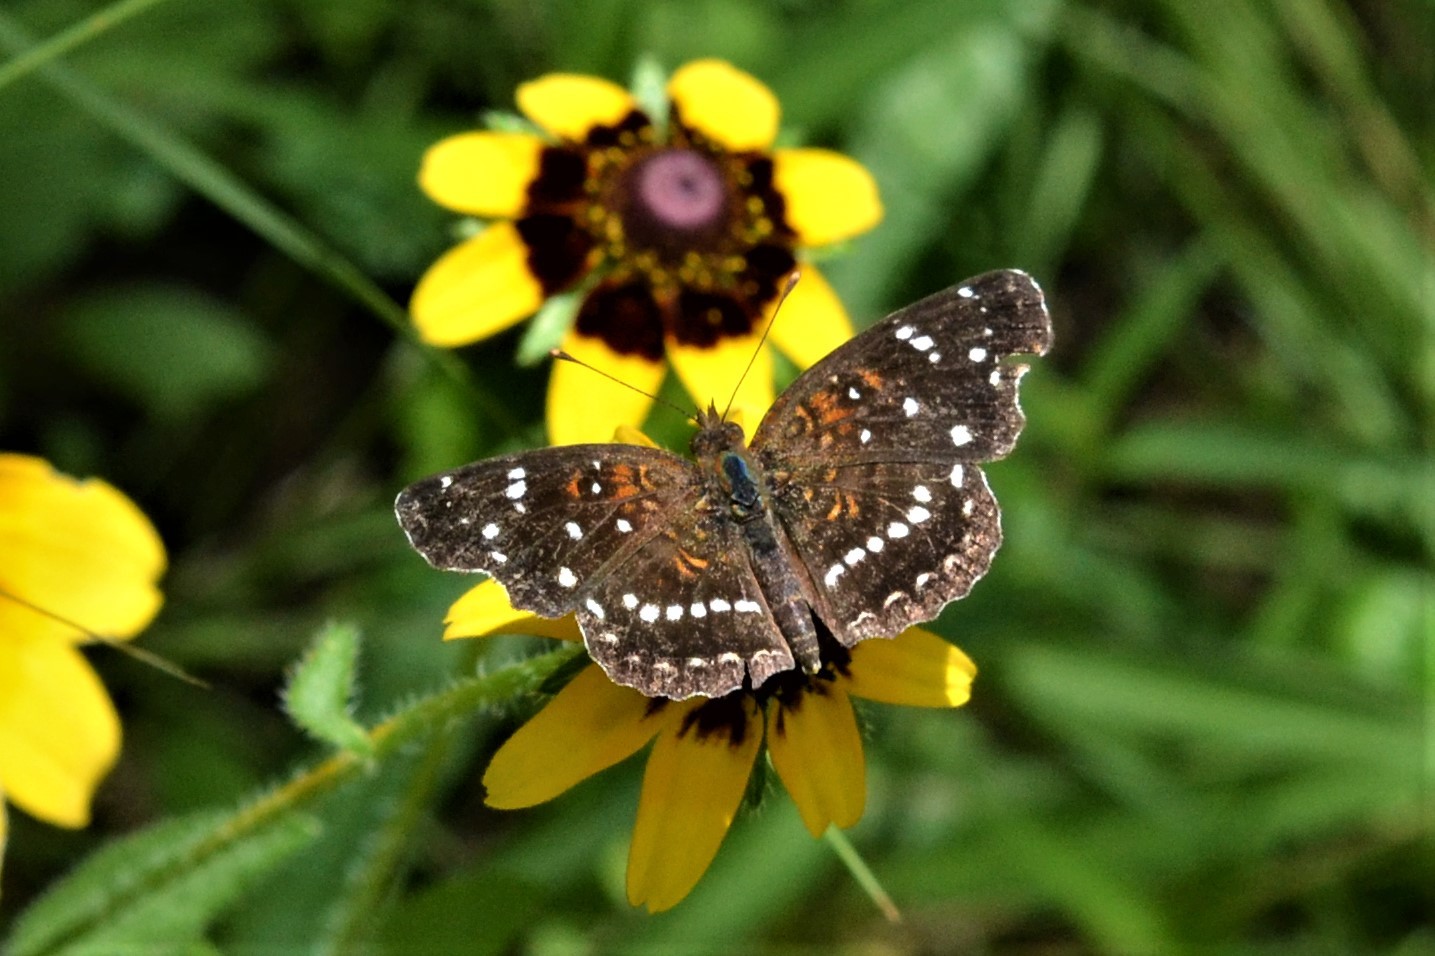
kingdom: Animalia
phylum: Arthropoda
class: Insecta
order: Lepidoptera
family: Nymphalidae
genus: Anthanassa
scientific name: Anthanassa texana
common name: Texan crescent
